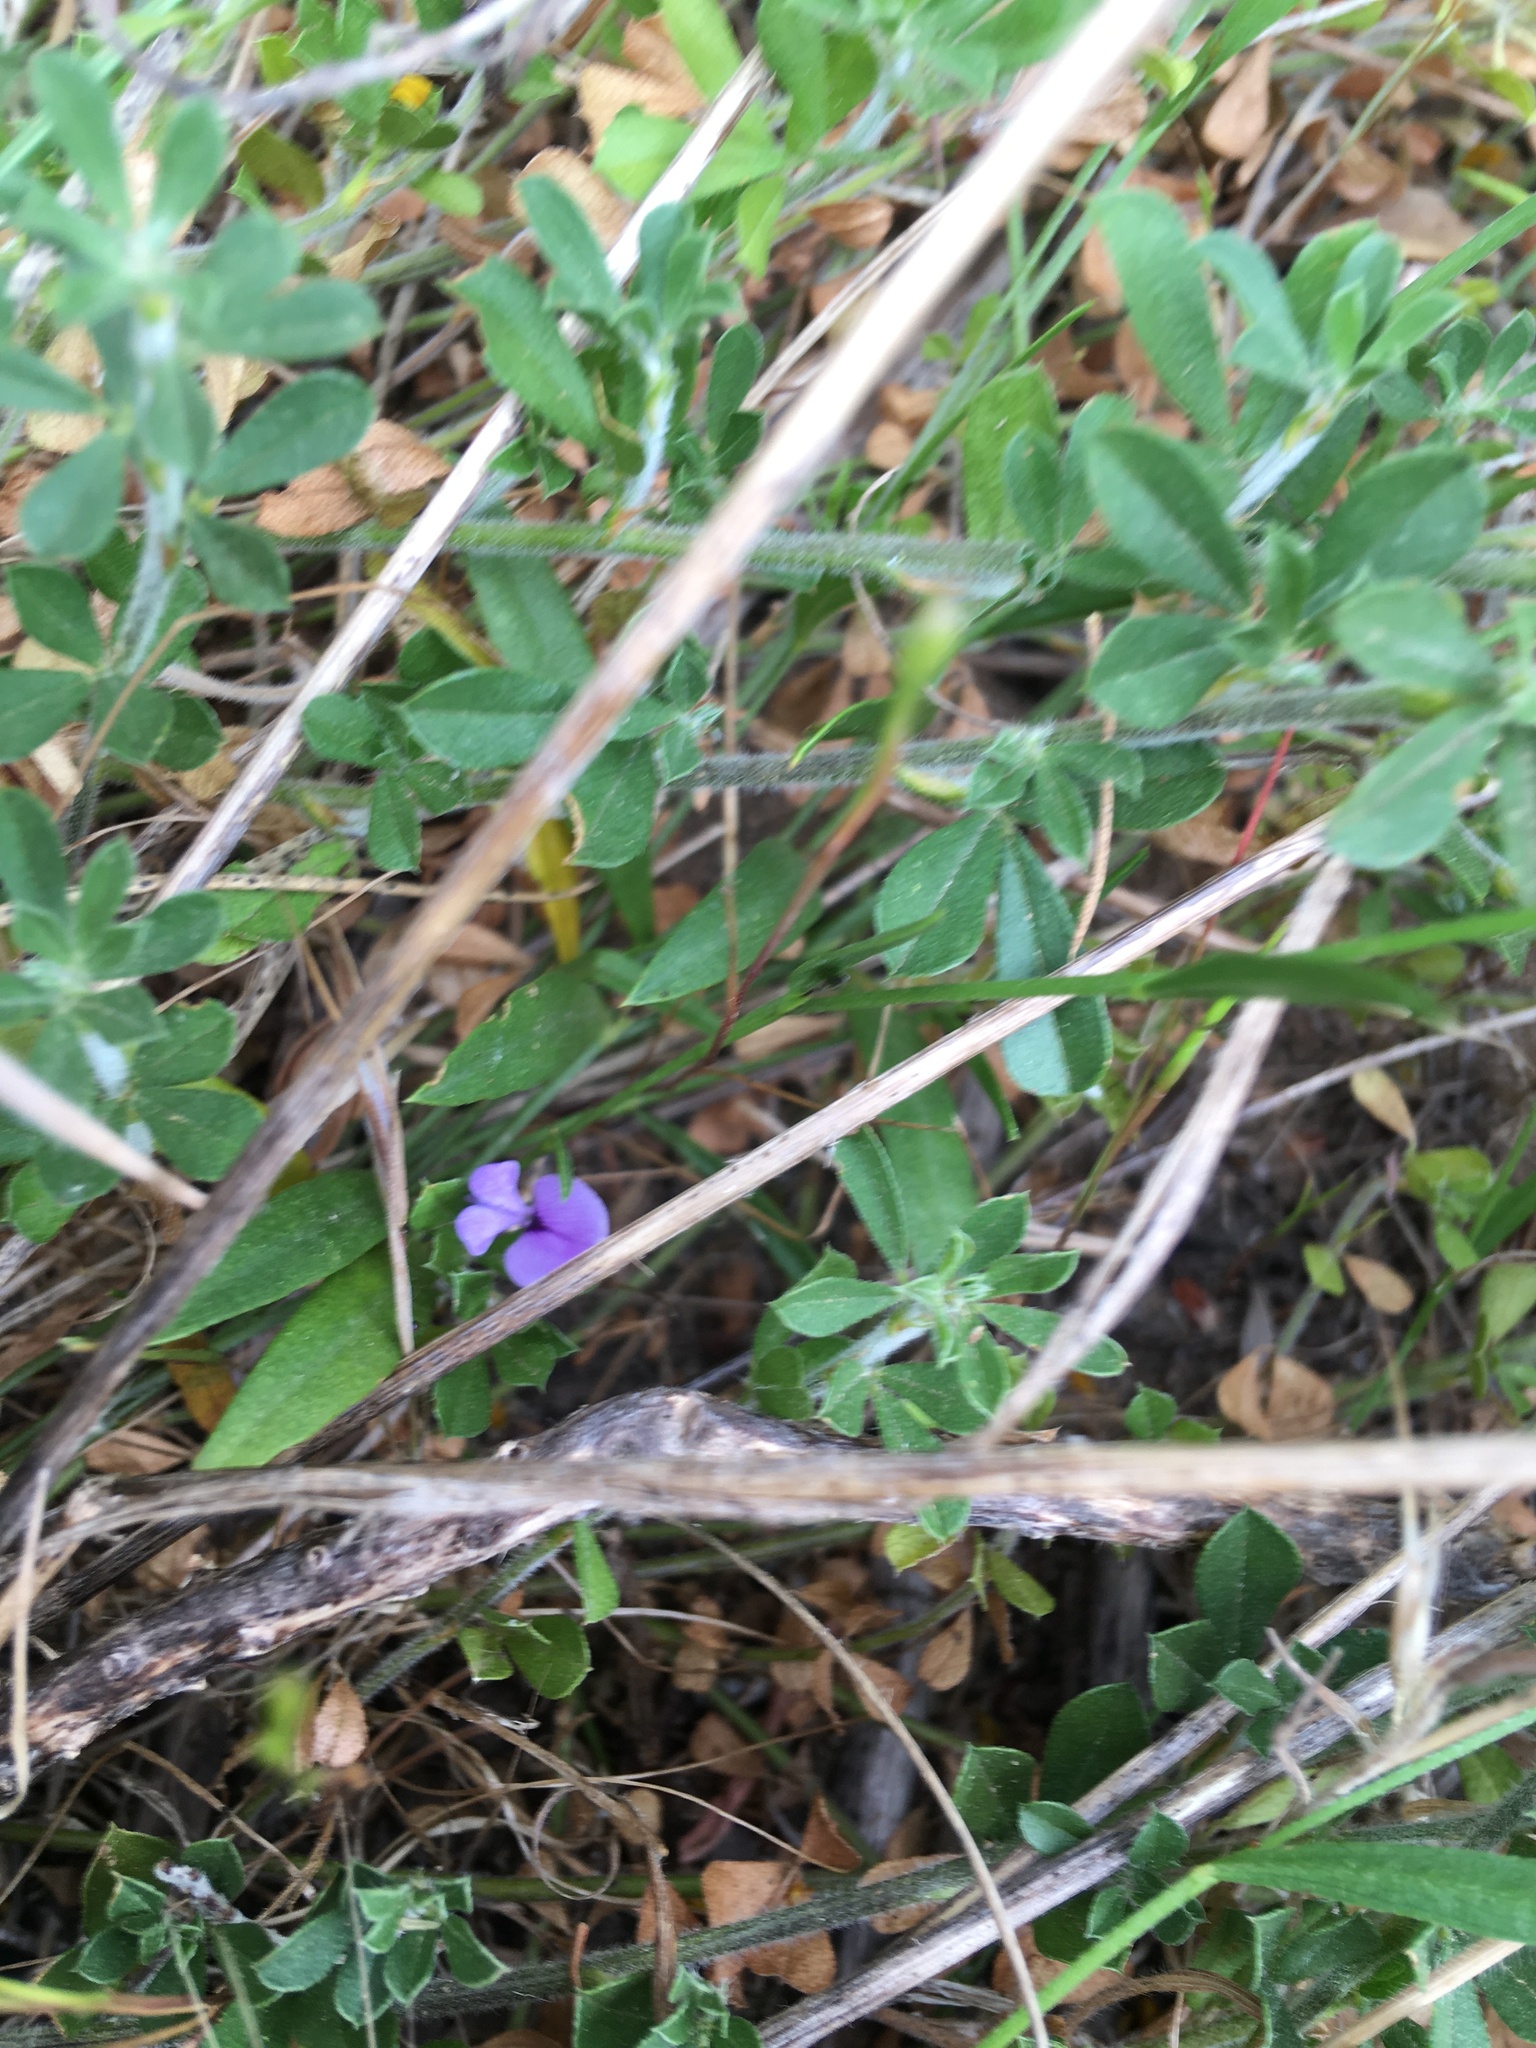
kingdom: Plantae
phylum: Tracheophyta
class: Magnoliopsida
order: Fabales
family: Fabaceae
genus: Psoralea
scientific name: Psoralea laxa
